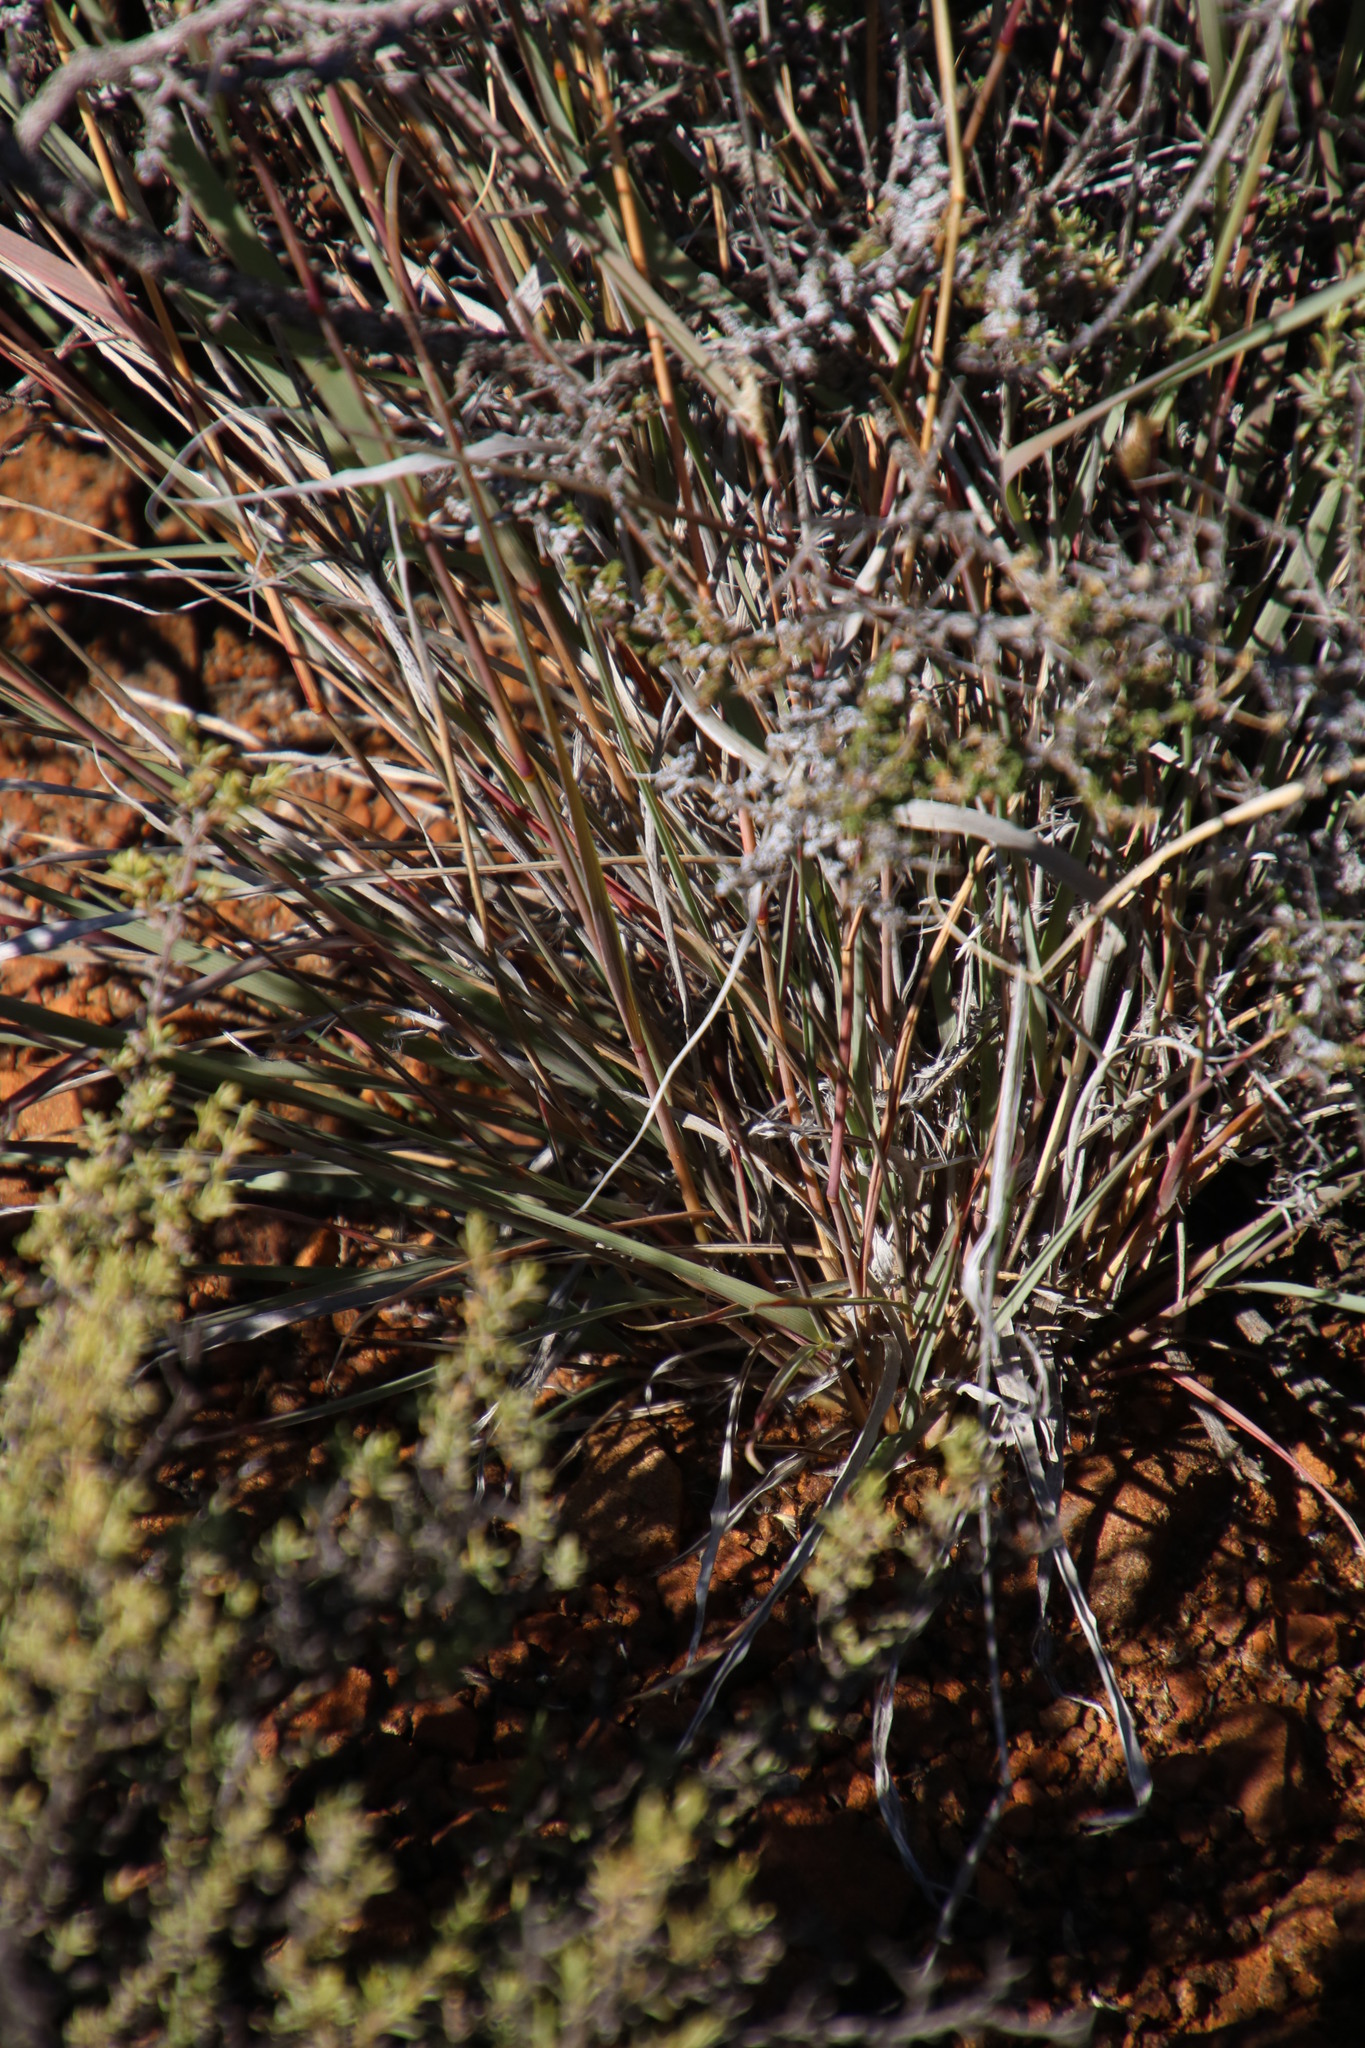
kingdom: Plantae
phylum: Tracheophyta
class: Liliopsida
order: Poales
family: Poaceae
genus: Fingerhuthia
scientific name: Fingerhuthia africana
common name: Zulu fescue
